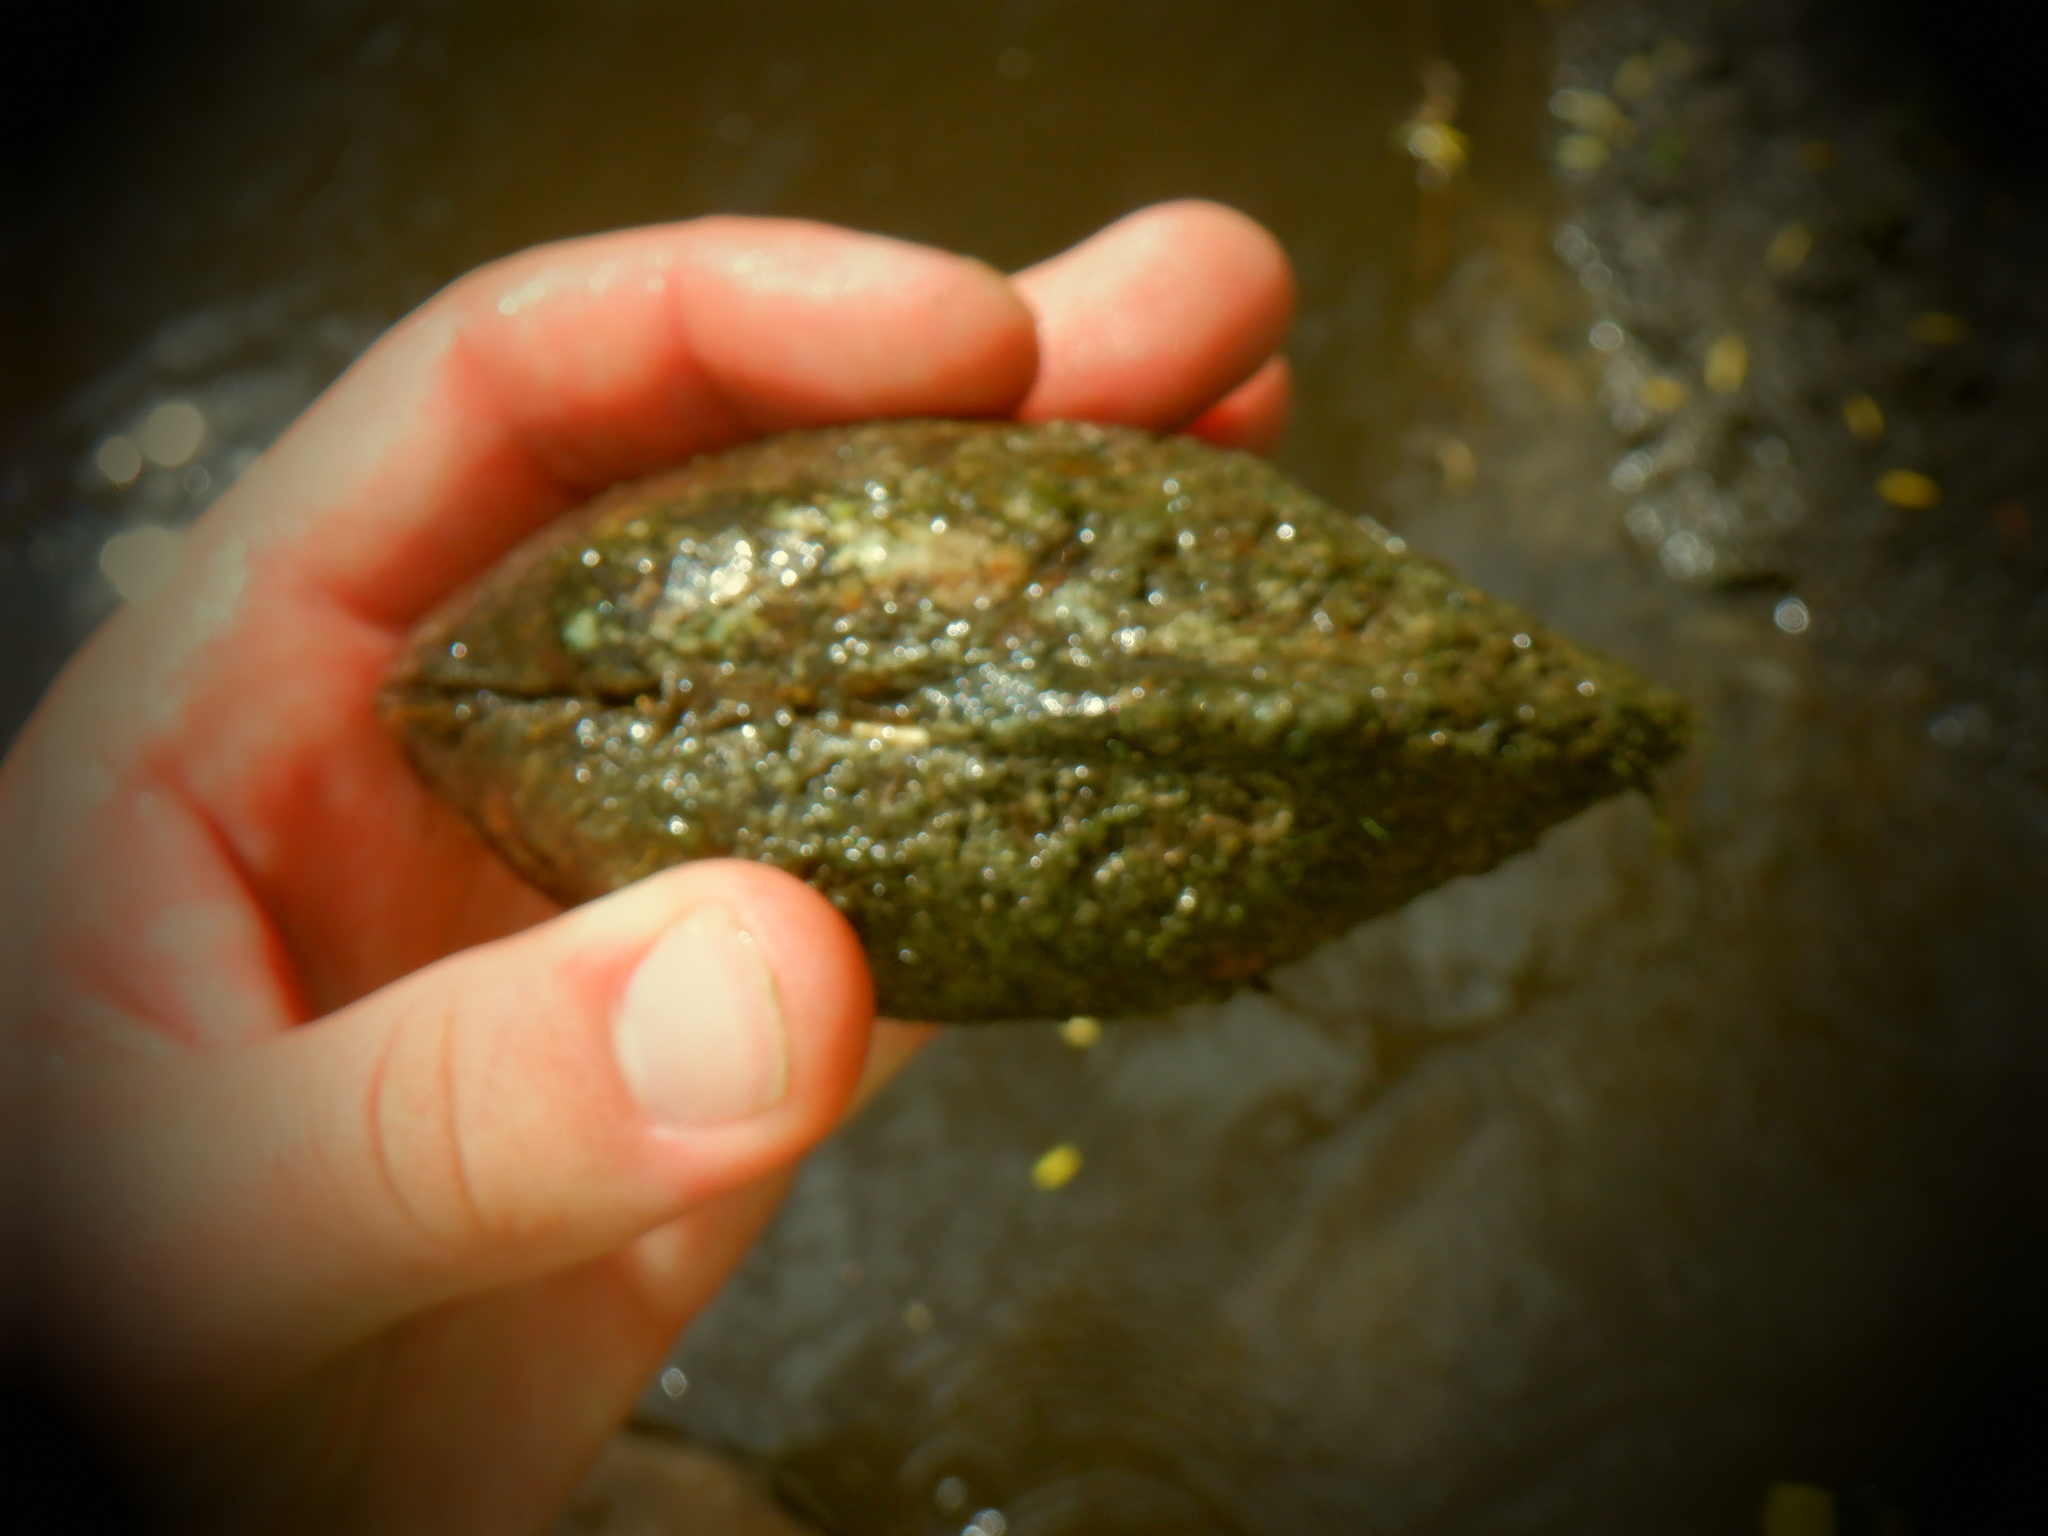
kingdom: Animalia
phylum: Mollusca
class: Bivalvia
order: Unionida
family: Unionidae
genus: Lampsilis
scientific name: Lampsilis siliquoidea
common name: Fatmucket
